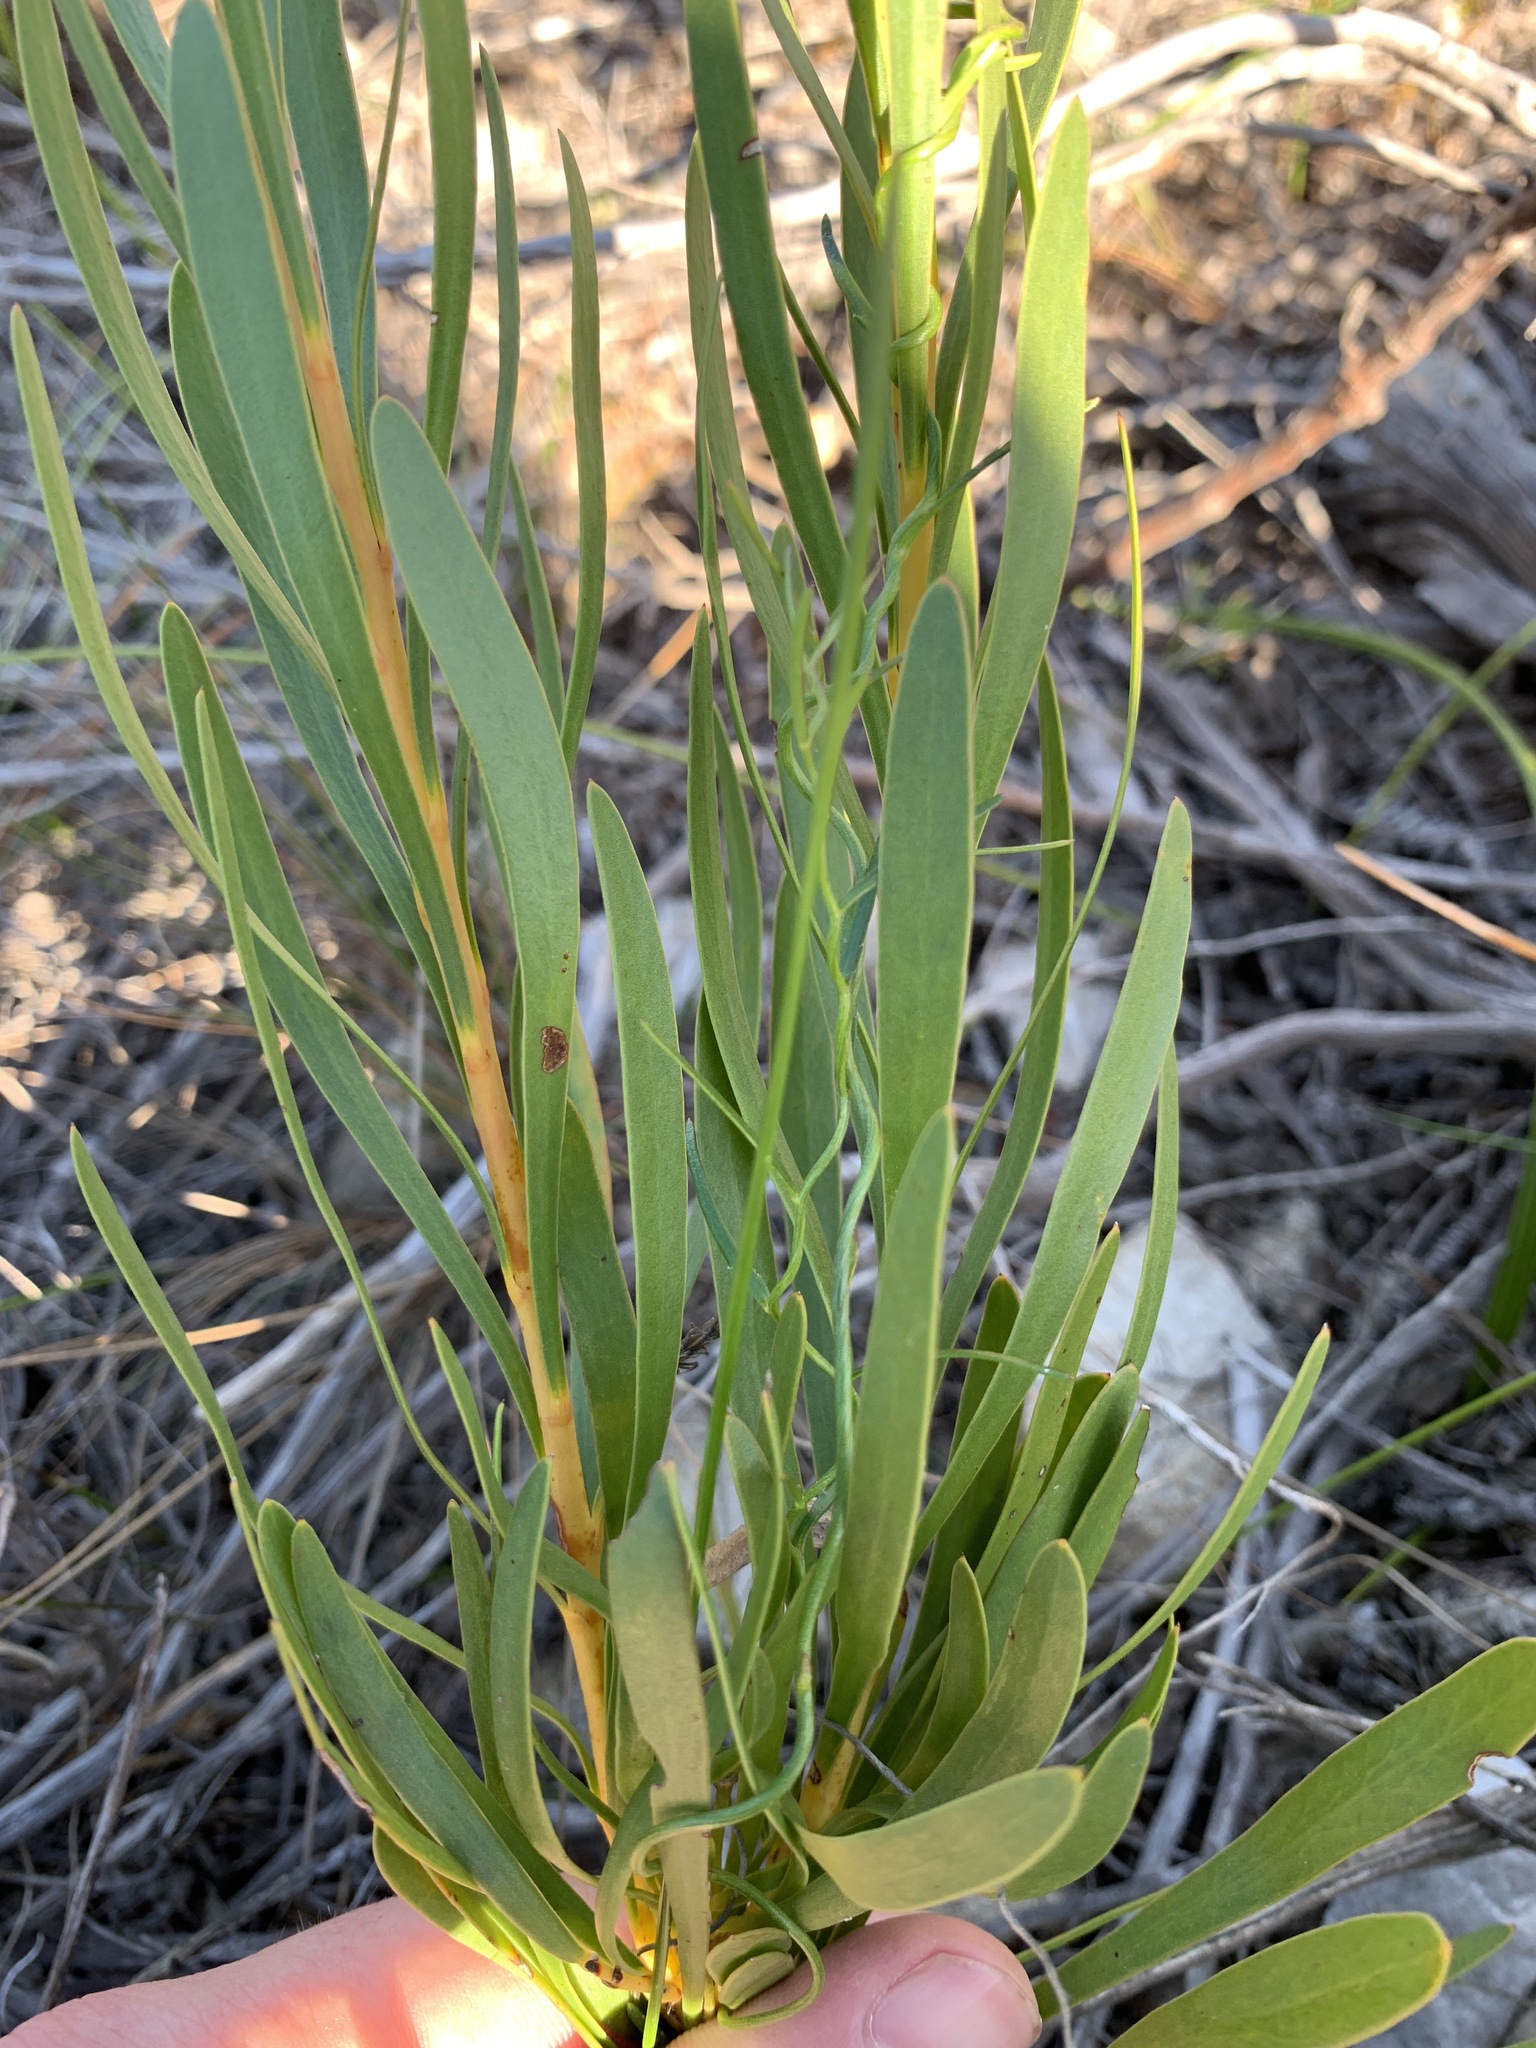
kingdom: Plantae
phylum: Tracheophyta
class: Magnoliopsida
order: Proteales
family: Proteaceae
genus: Aulax
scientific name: Aulax umbellata
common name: Broad-leaf featherbush
